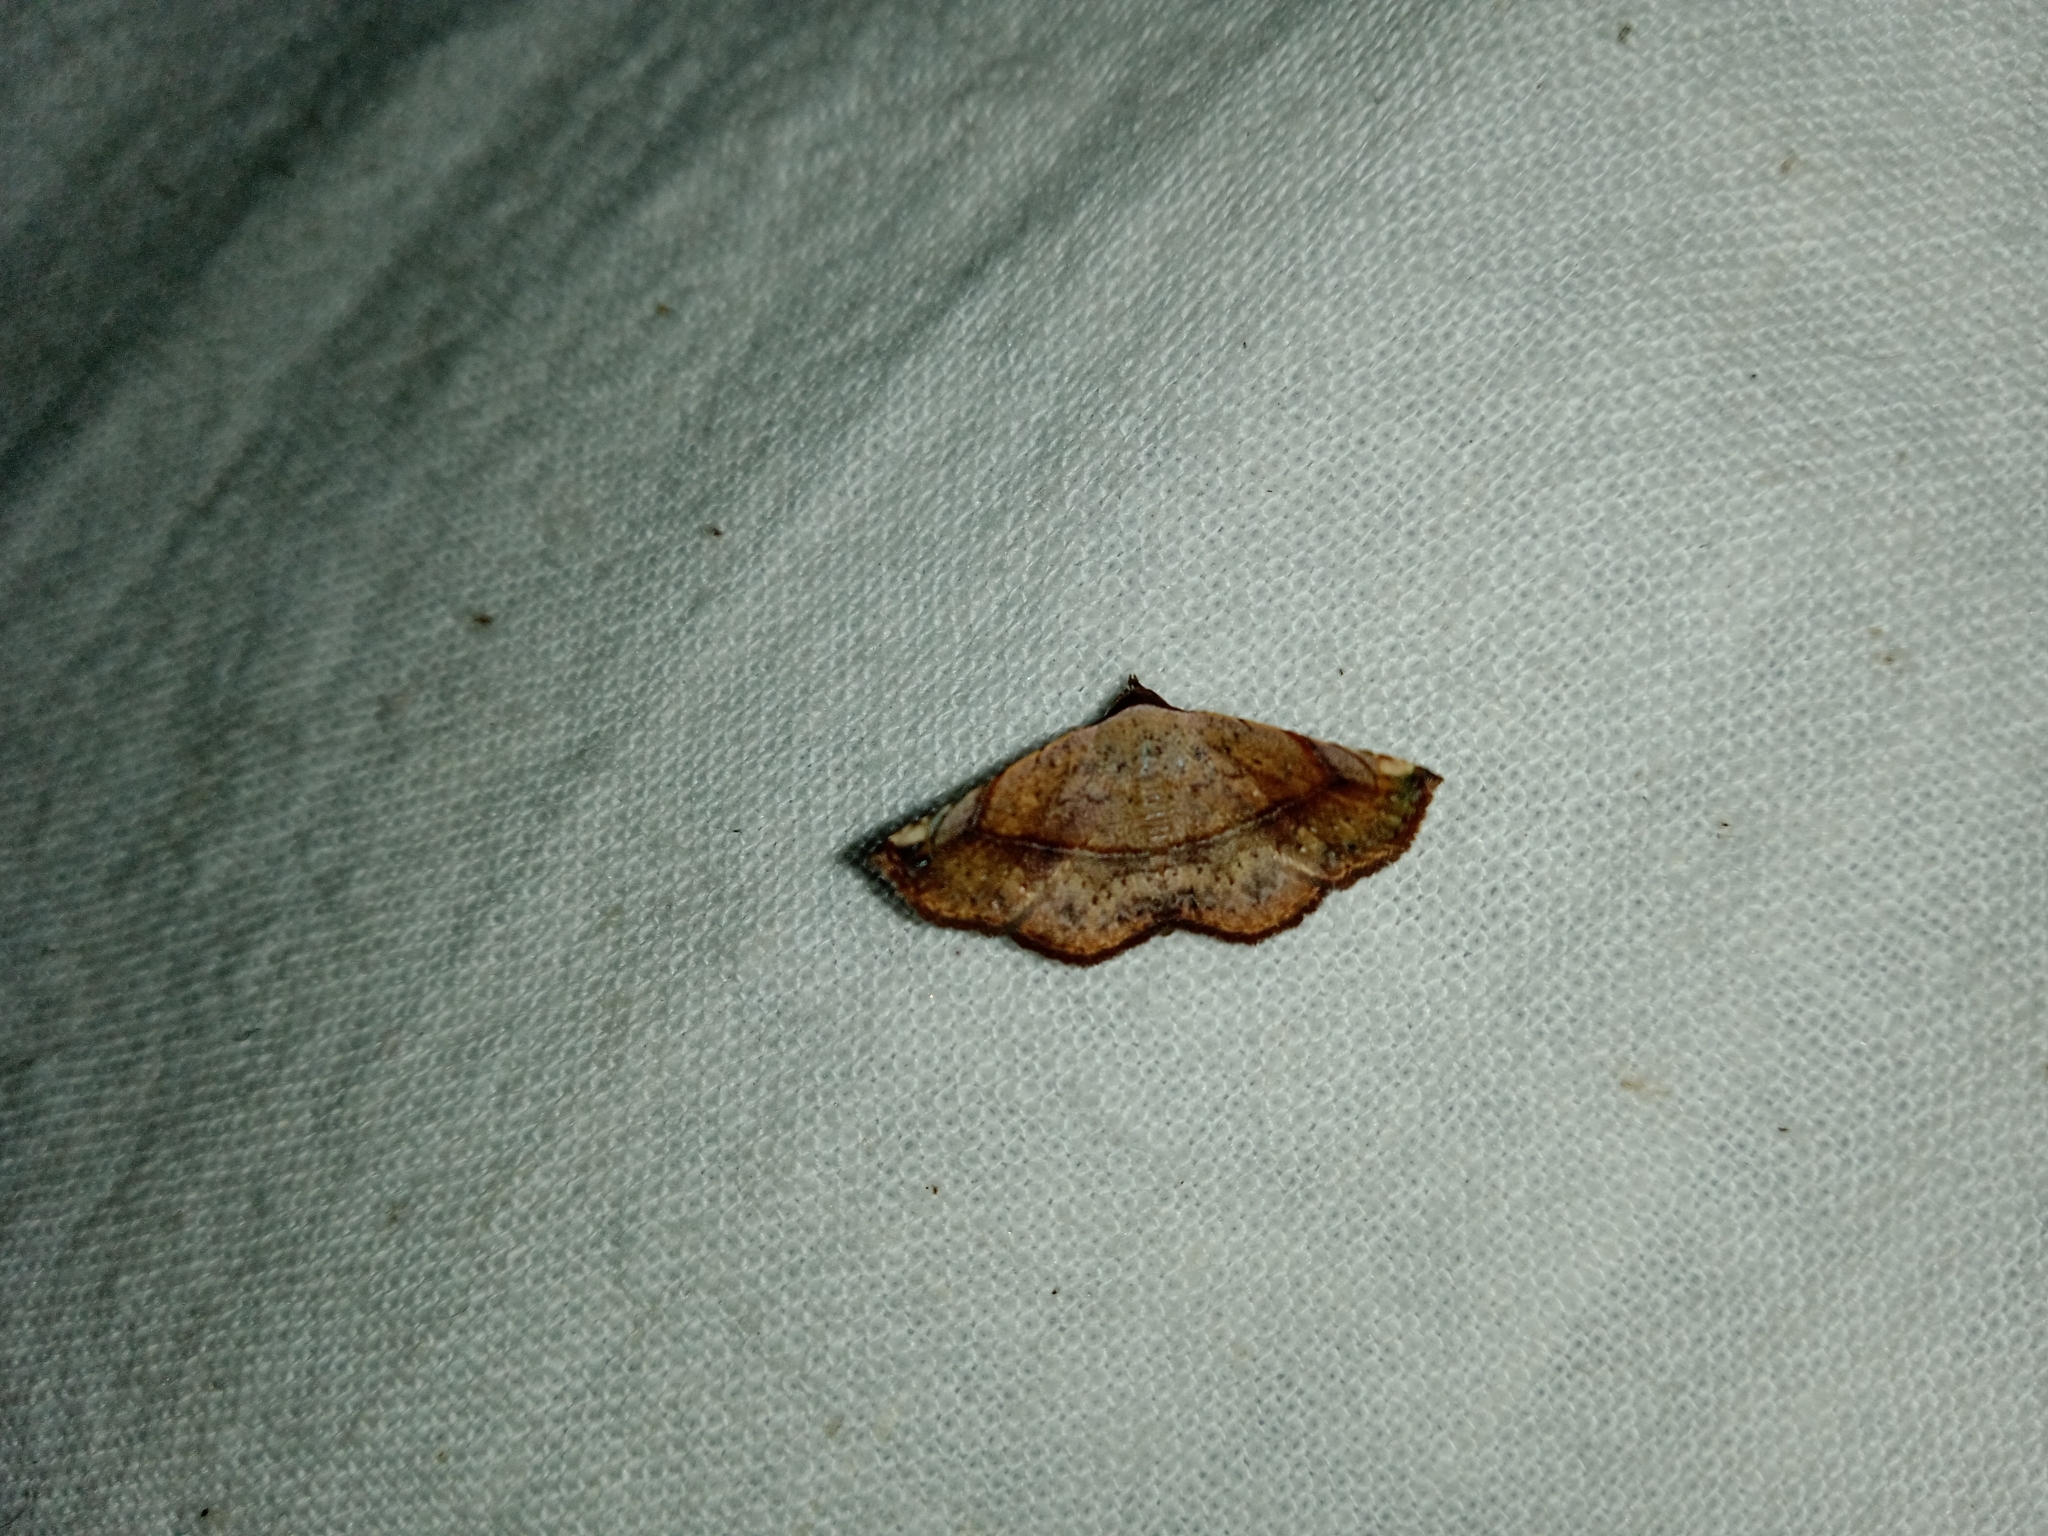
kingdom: Animalia
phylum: Arthropoda
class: Insecta
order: Lepidoptera
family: Noctuidae
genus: Eublemma
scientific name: Eublemma abrupta
